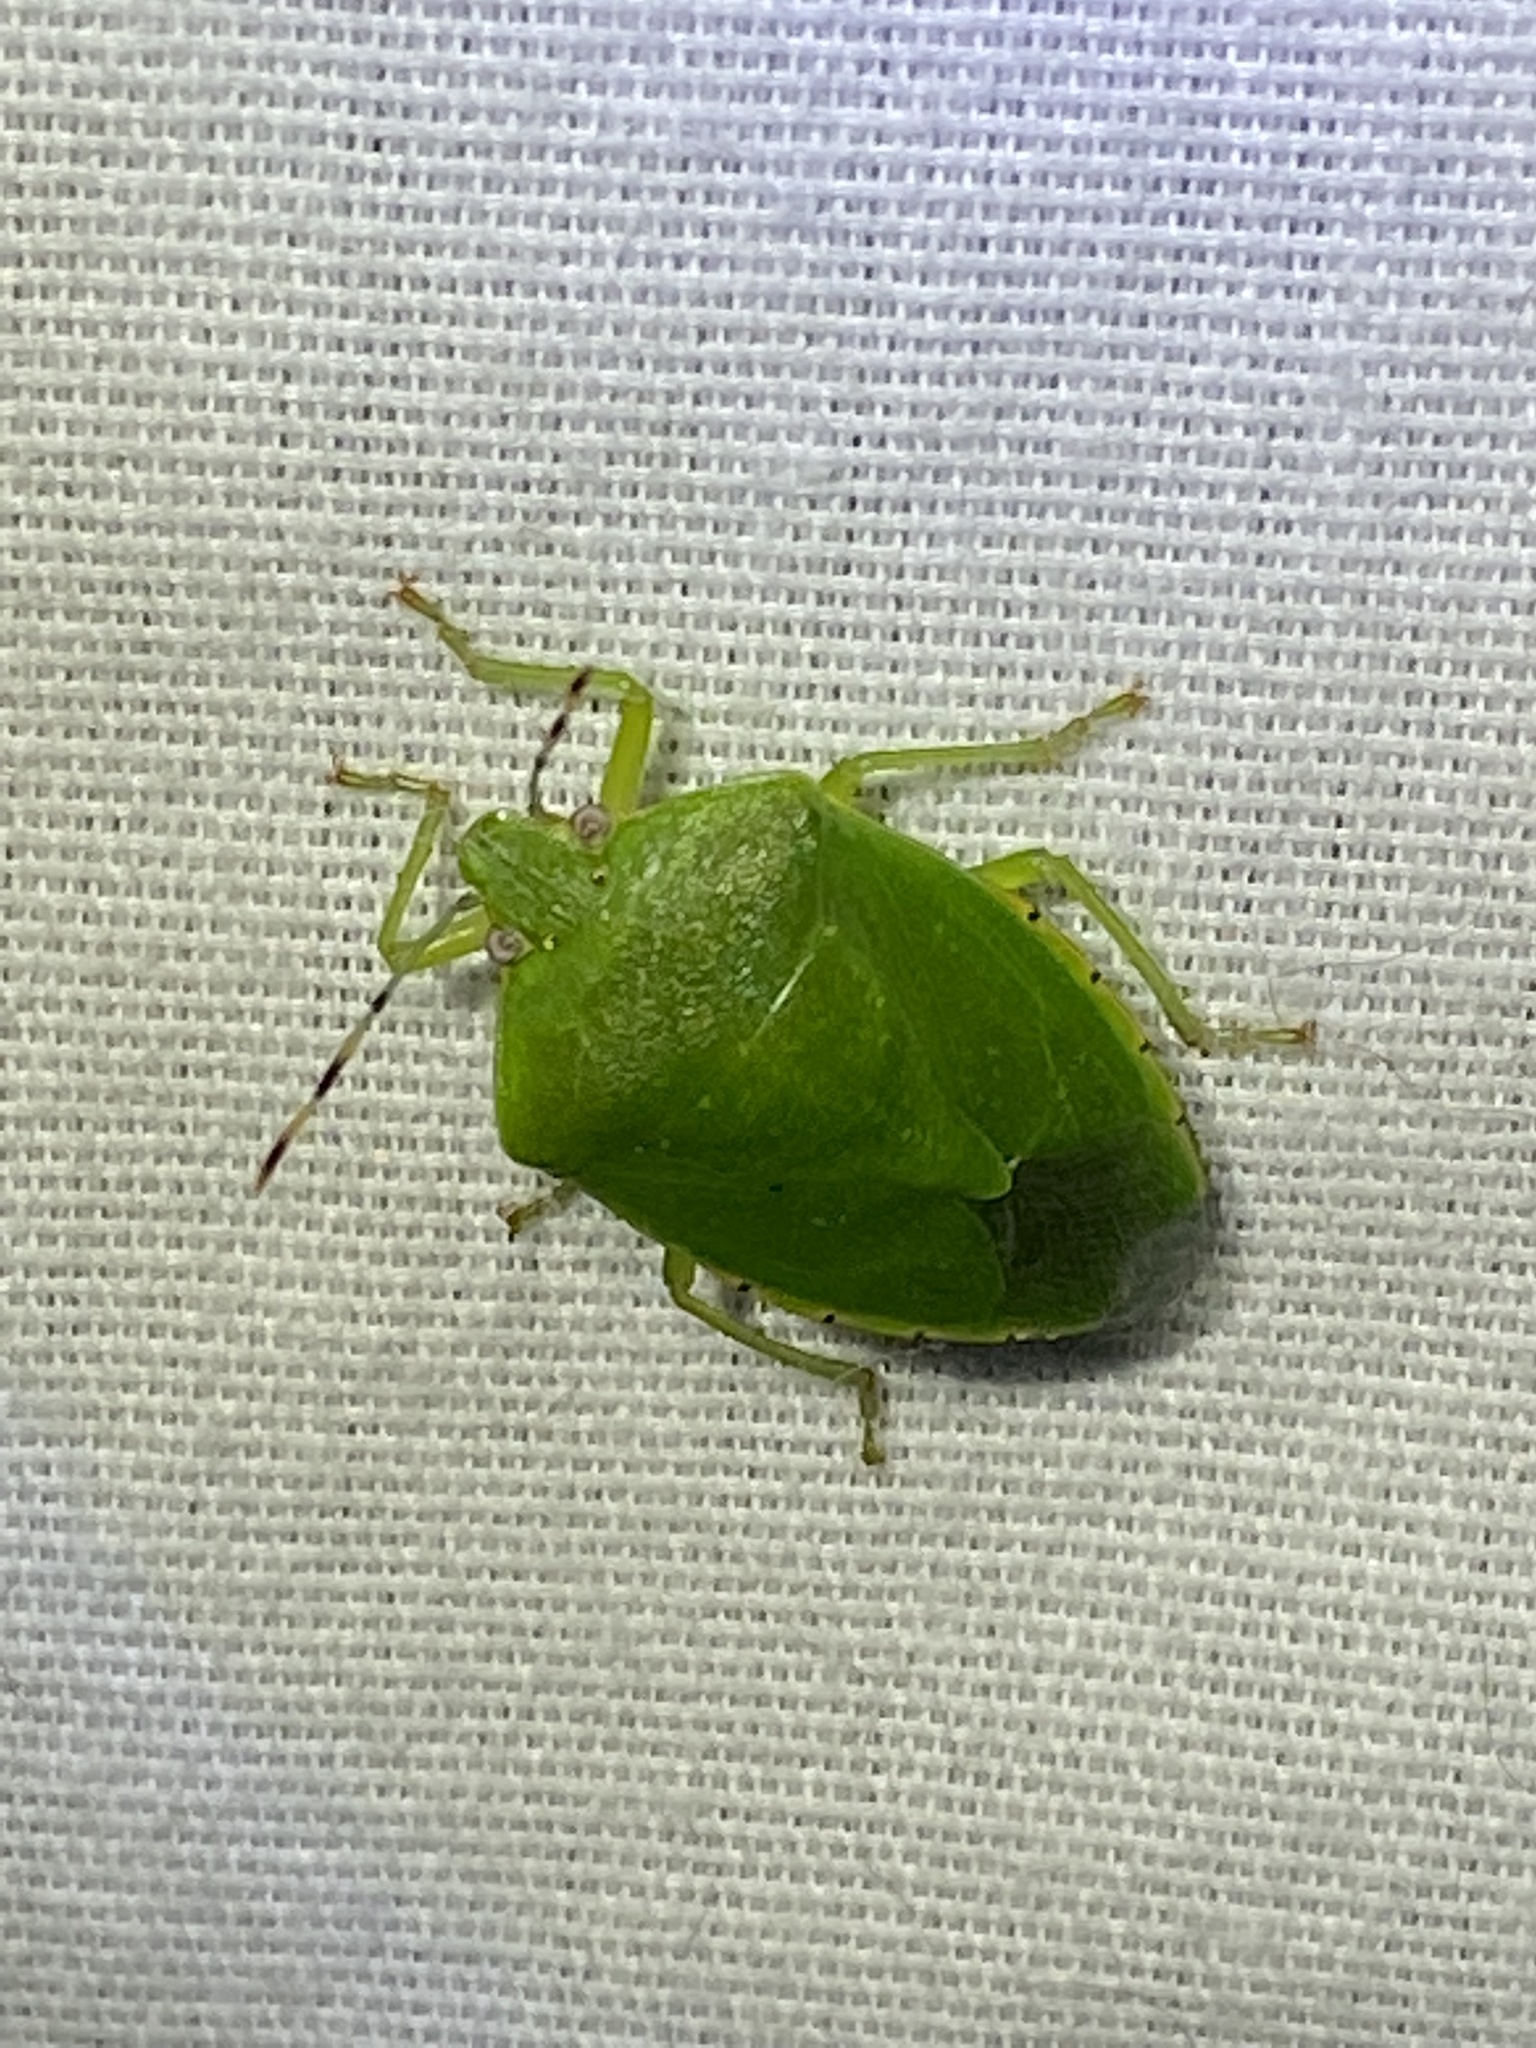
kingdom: Animalia
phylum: Arthropoda
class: Insecta
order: Hemiptera
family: Pentatomidae
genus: Chinavia
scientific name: Chinavia hilaris
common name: Green stink bug
